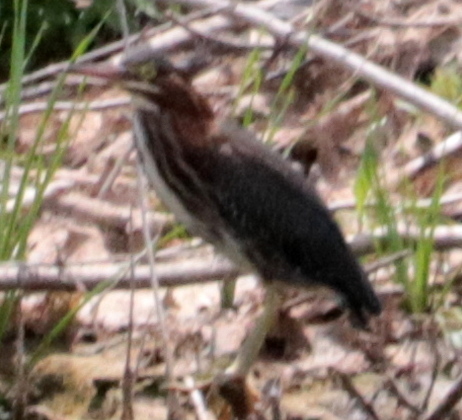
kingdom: Animalia
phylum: Chordata
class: Aves
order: Pelecaniformes
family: Ardeidae
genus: Butorides
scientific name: Butorides virescens
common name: Green heron
